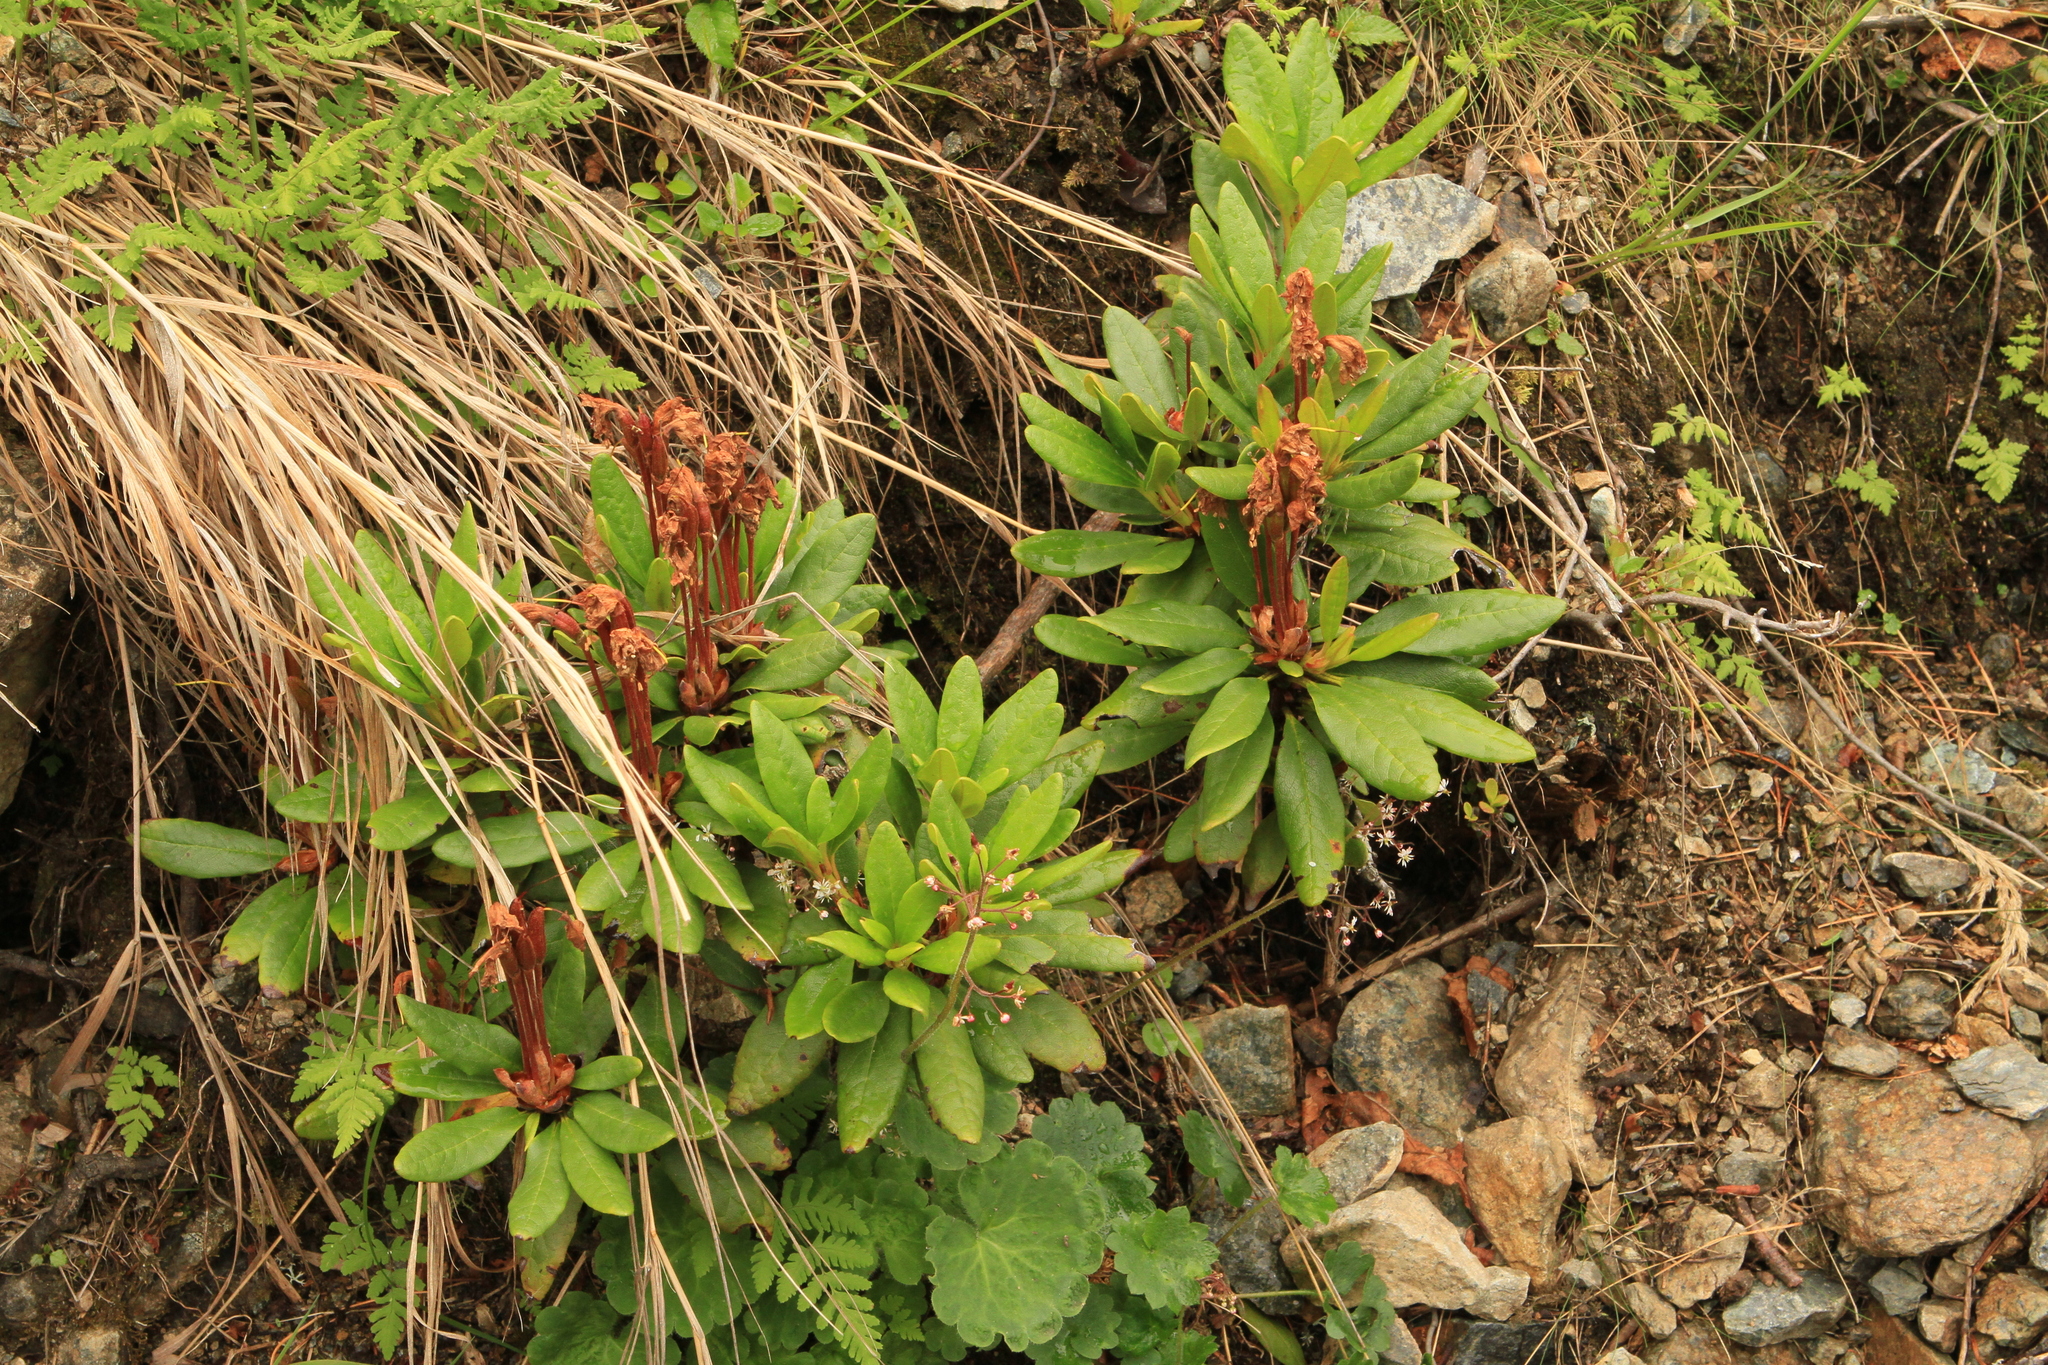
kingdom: Plantae
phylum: Tracheophyta
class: Magnoliopsida
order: Ericales
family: Ericaceae
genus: Rhododendron
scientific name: Rhododendron aureum
